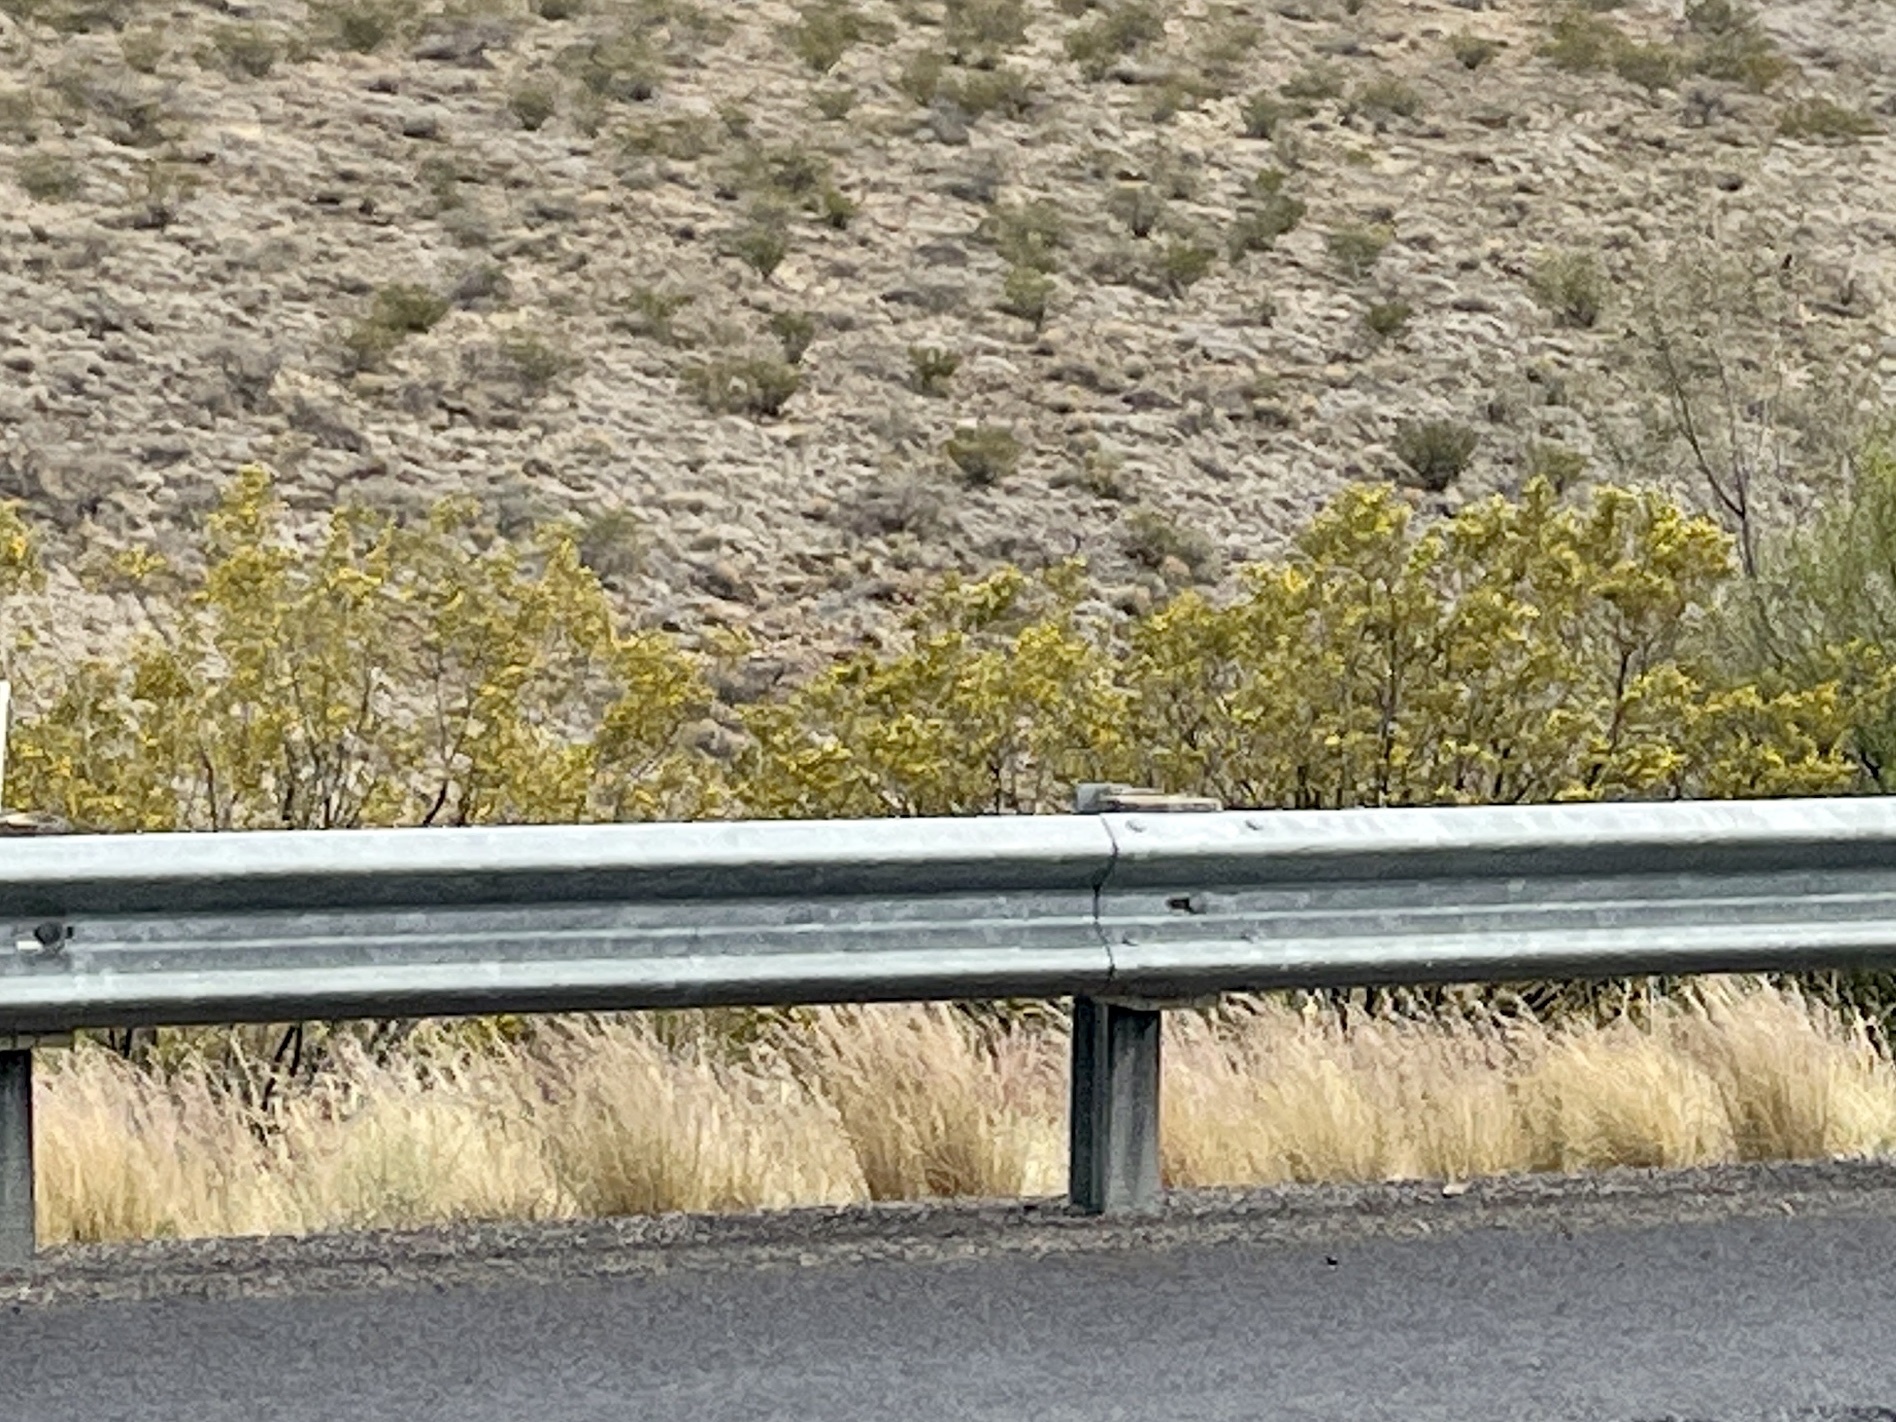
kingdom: Plantae
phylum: Tracheophyta
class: Magnoliopsida
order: Zygophyllales
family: Zygophyllaceae
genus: Larrea
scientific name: Larrea tridentata
